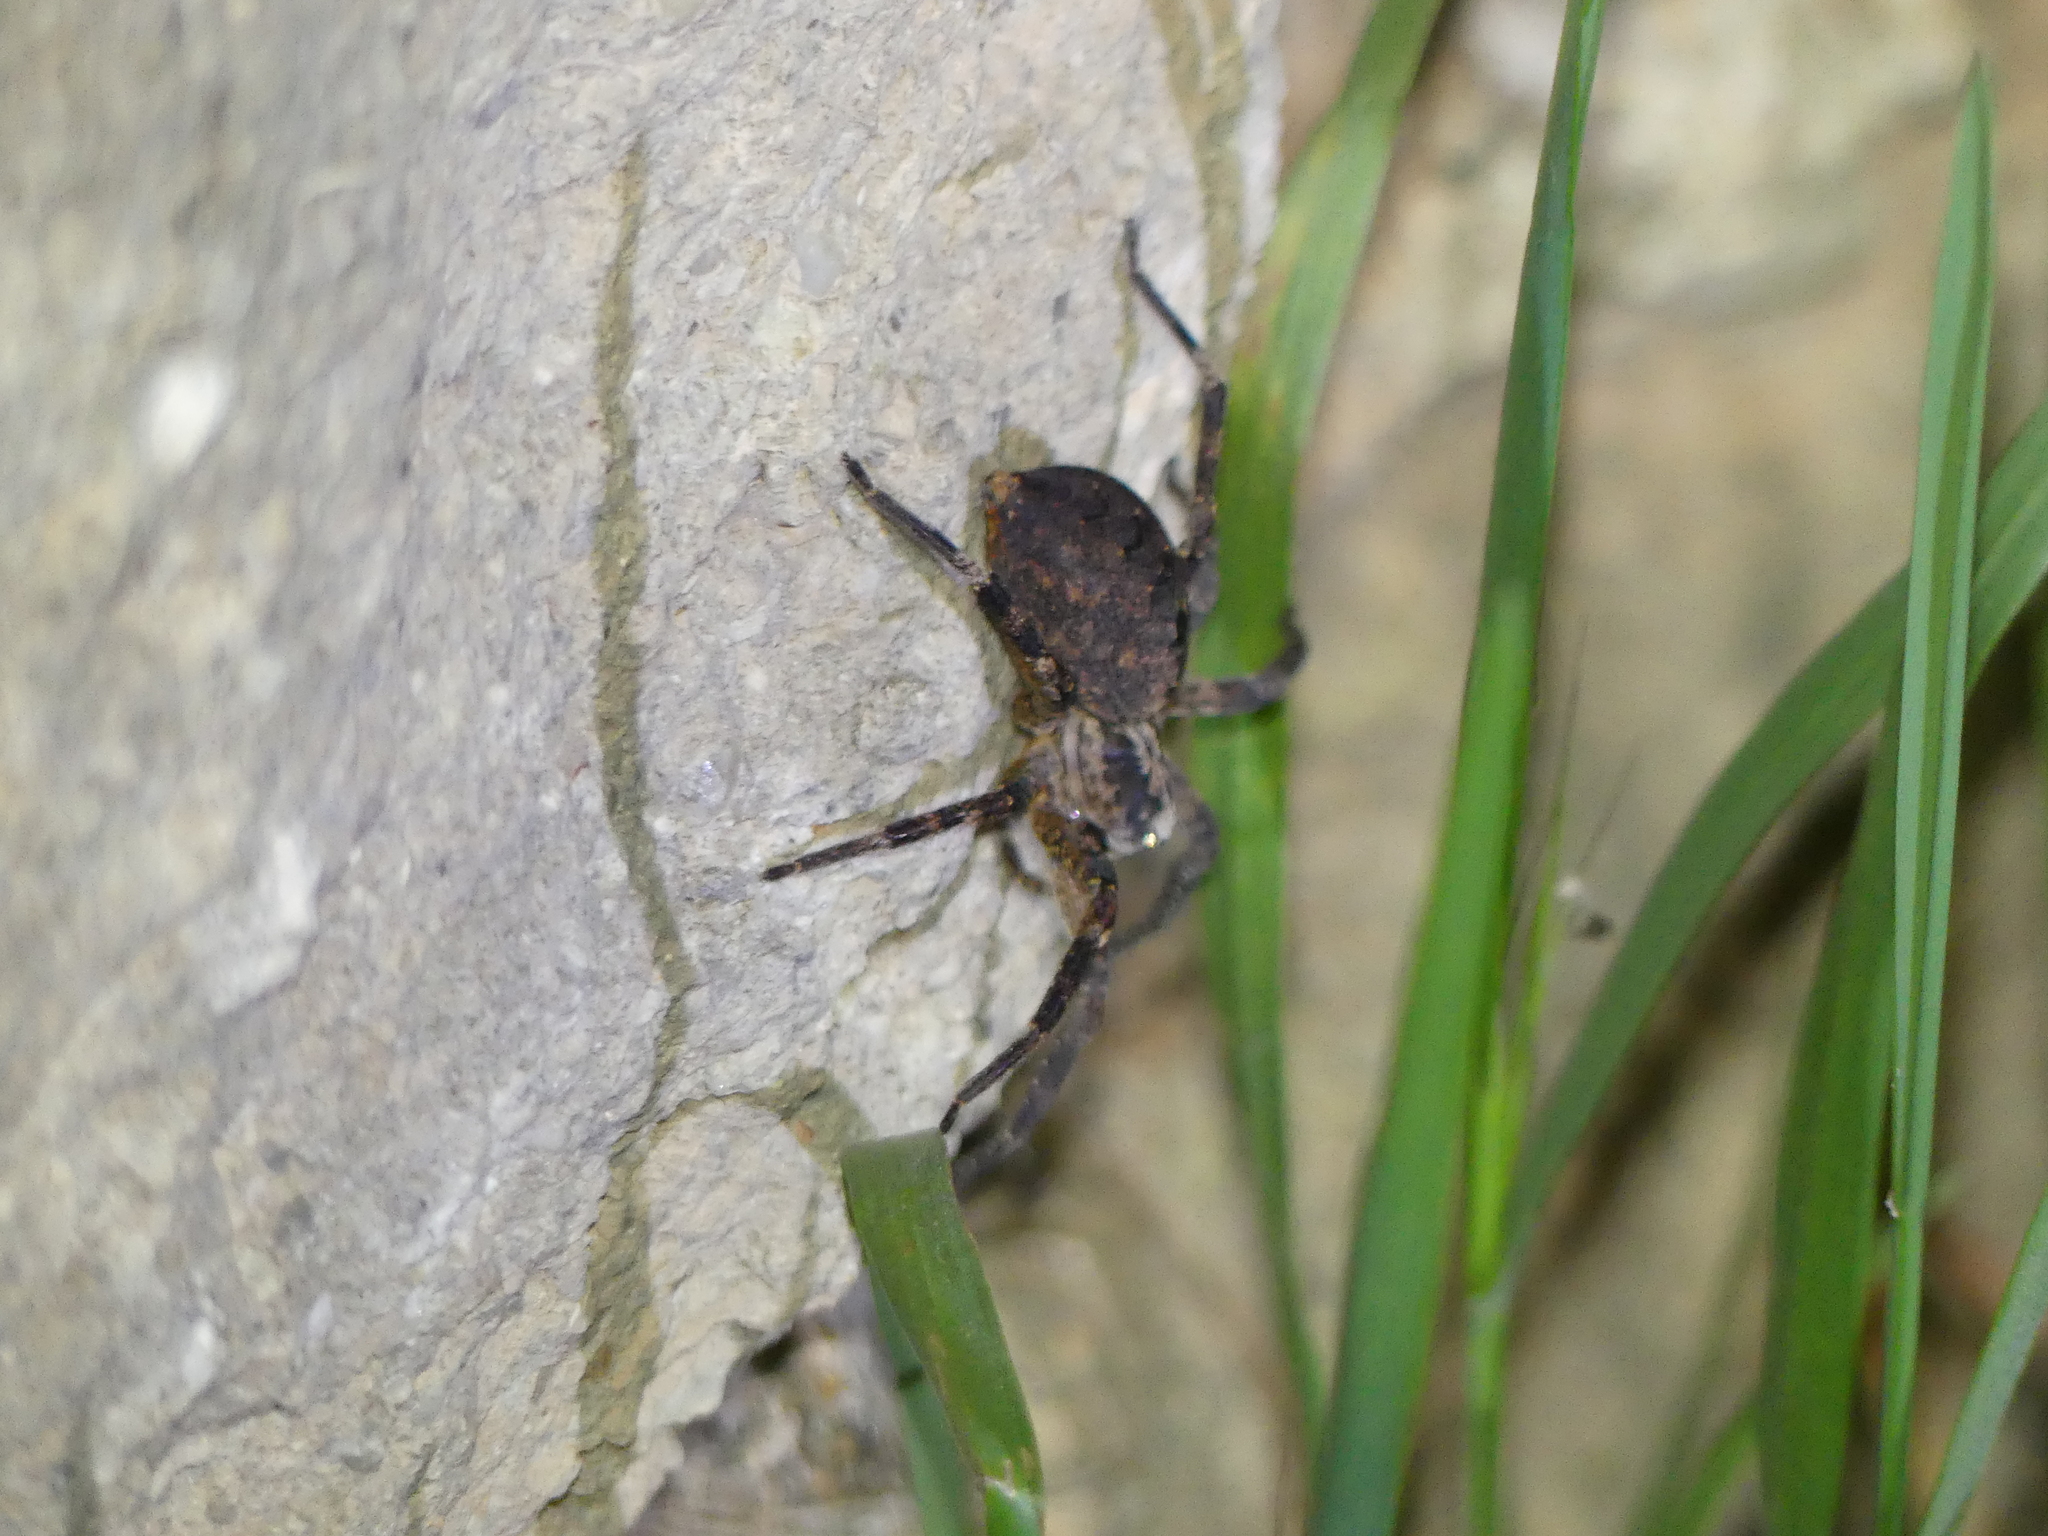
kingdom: Animalia
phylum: Arthropoda
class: Arachnida
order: Araneae
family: Zoropsidae
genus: Zoropsis
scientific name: Zoropsis spinimana
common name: Zoropsid spider
